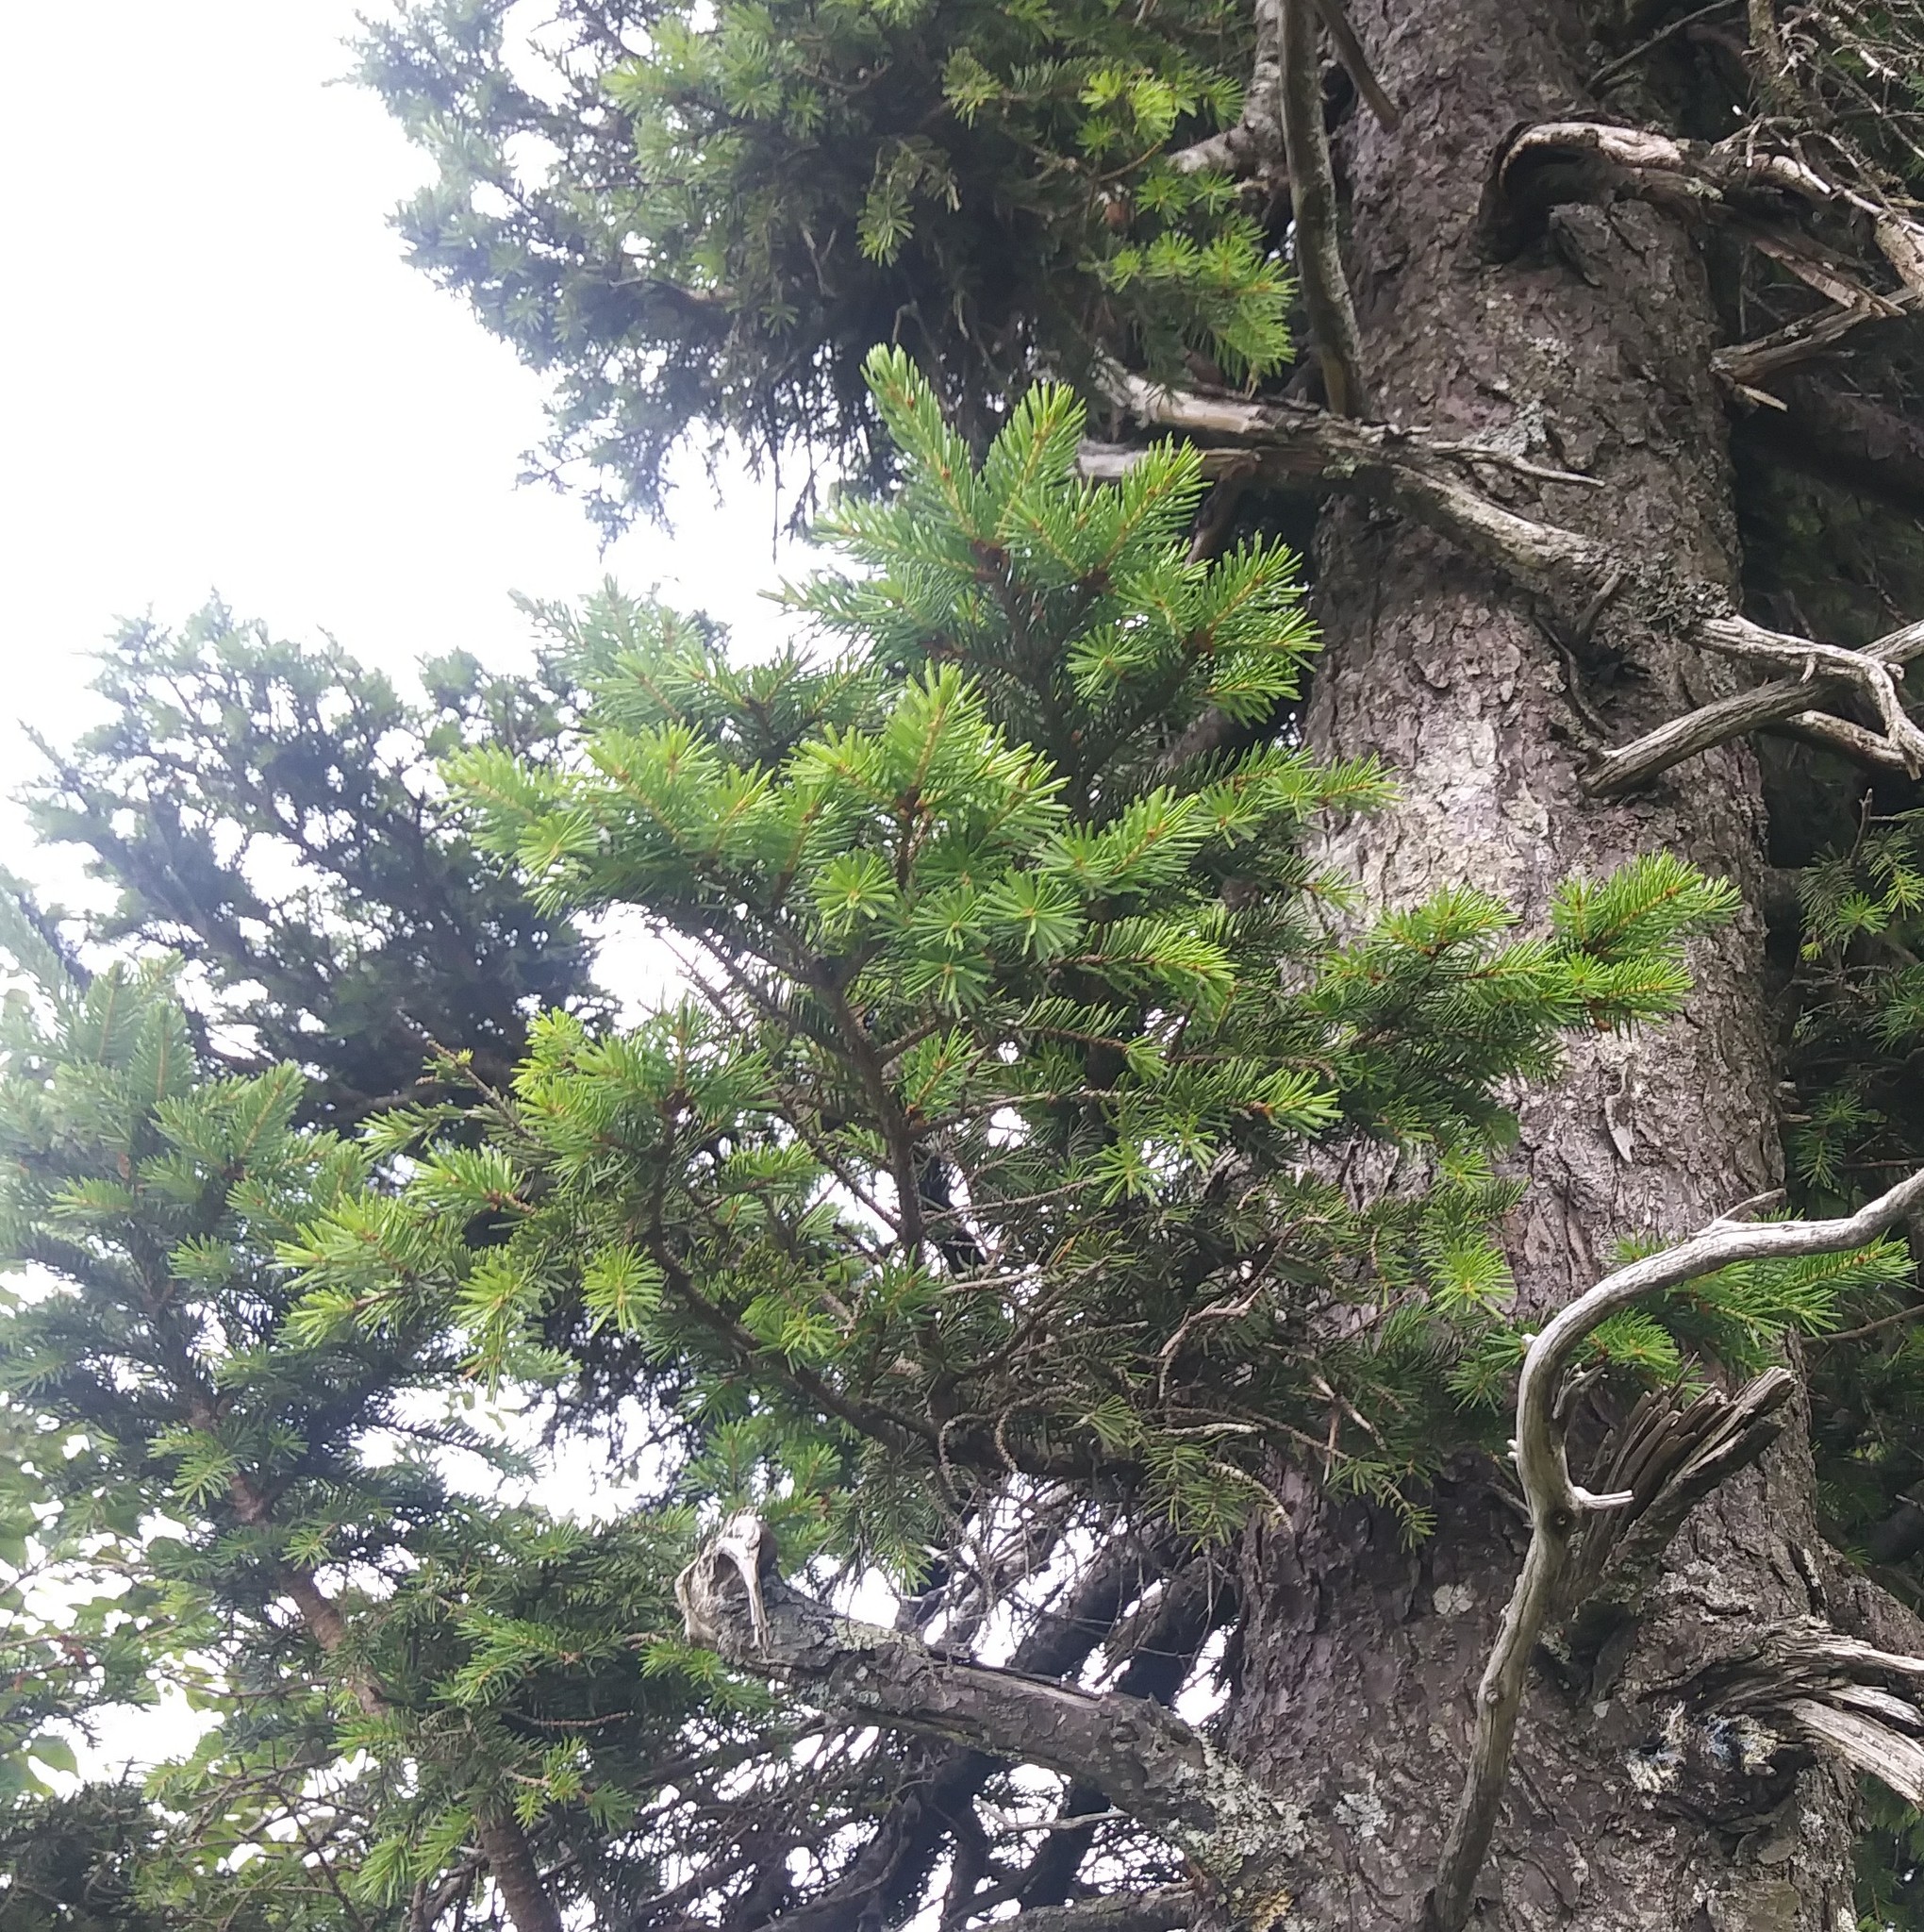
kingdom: Plantae
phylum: Tracheophyta
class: Pinopsida
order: Pinales
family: Pinaceae
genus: Picea
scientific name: Picea rubens
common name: Red spruce
